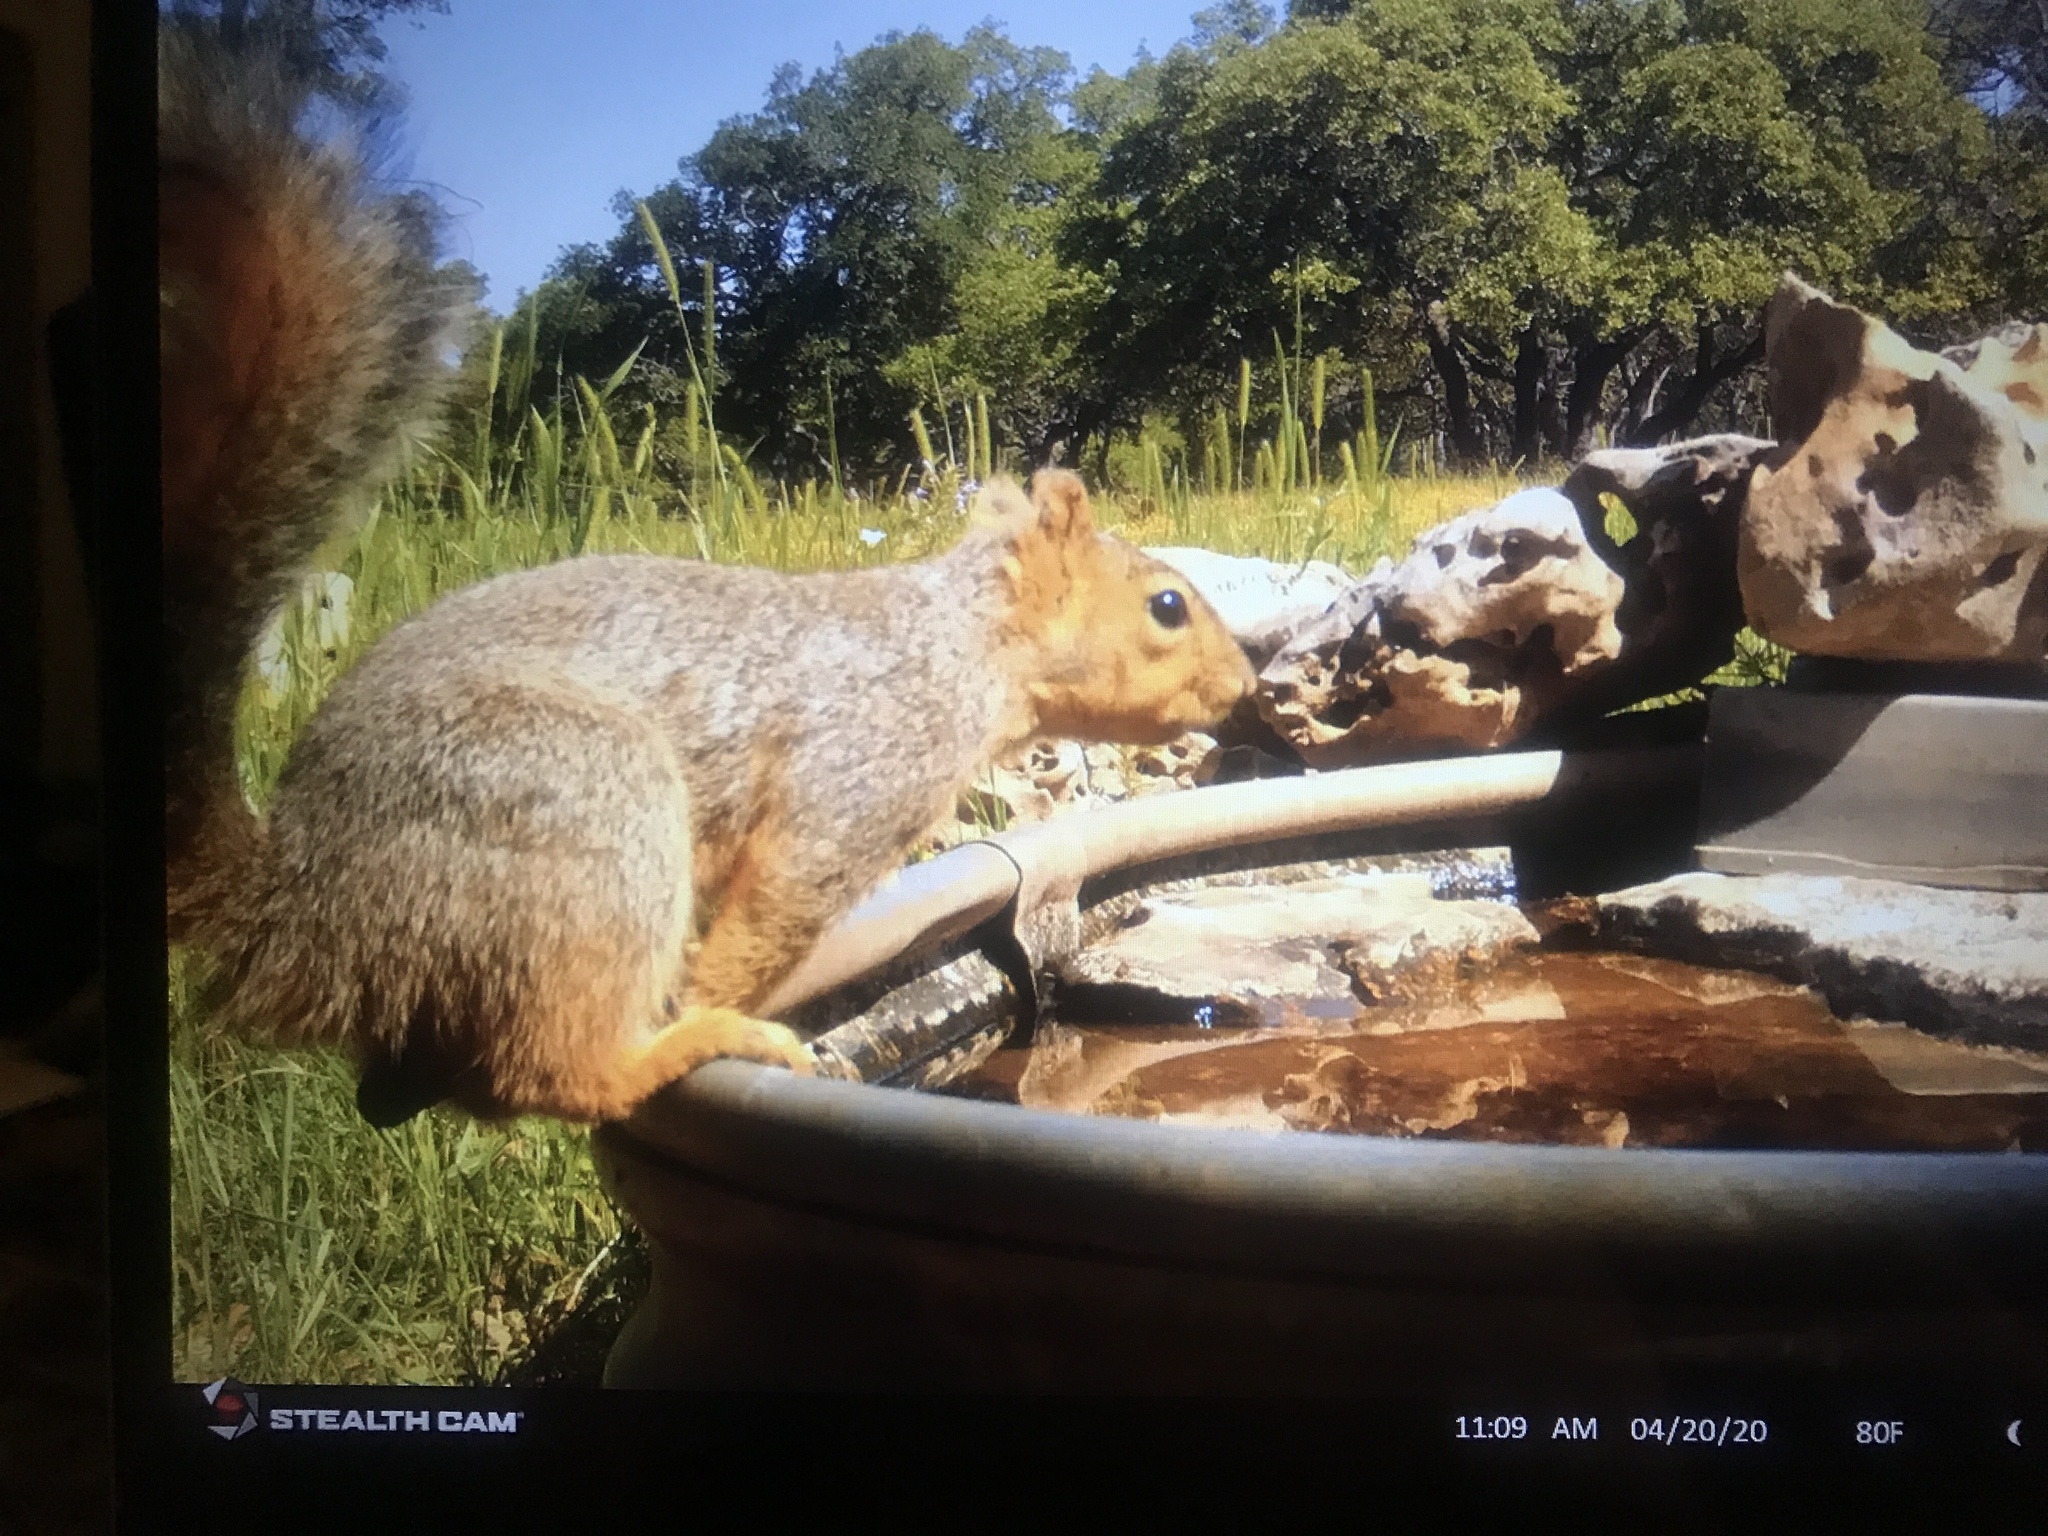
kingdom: Animalia
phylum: Chordata
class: Mammalia
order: Rodentia
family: Sciuridae
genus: Sciurus
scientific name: Sciurus niger
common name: Fox squirrel
